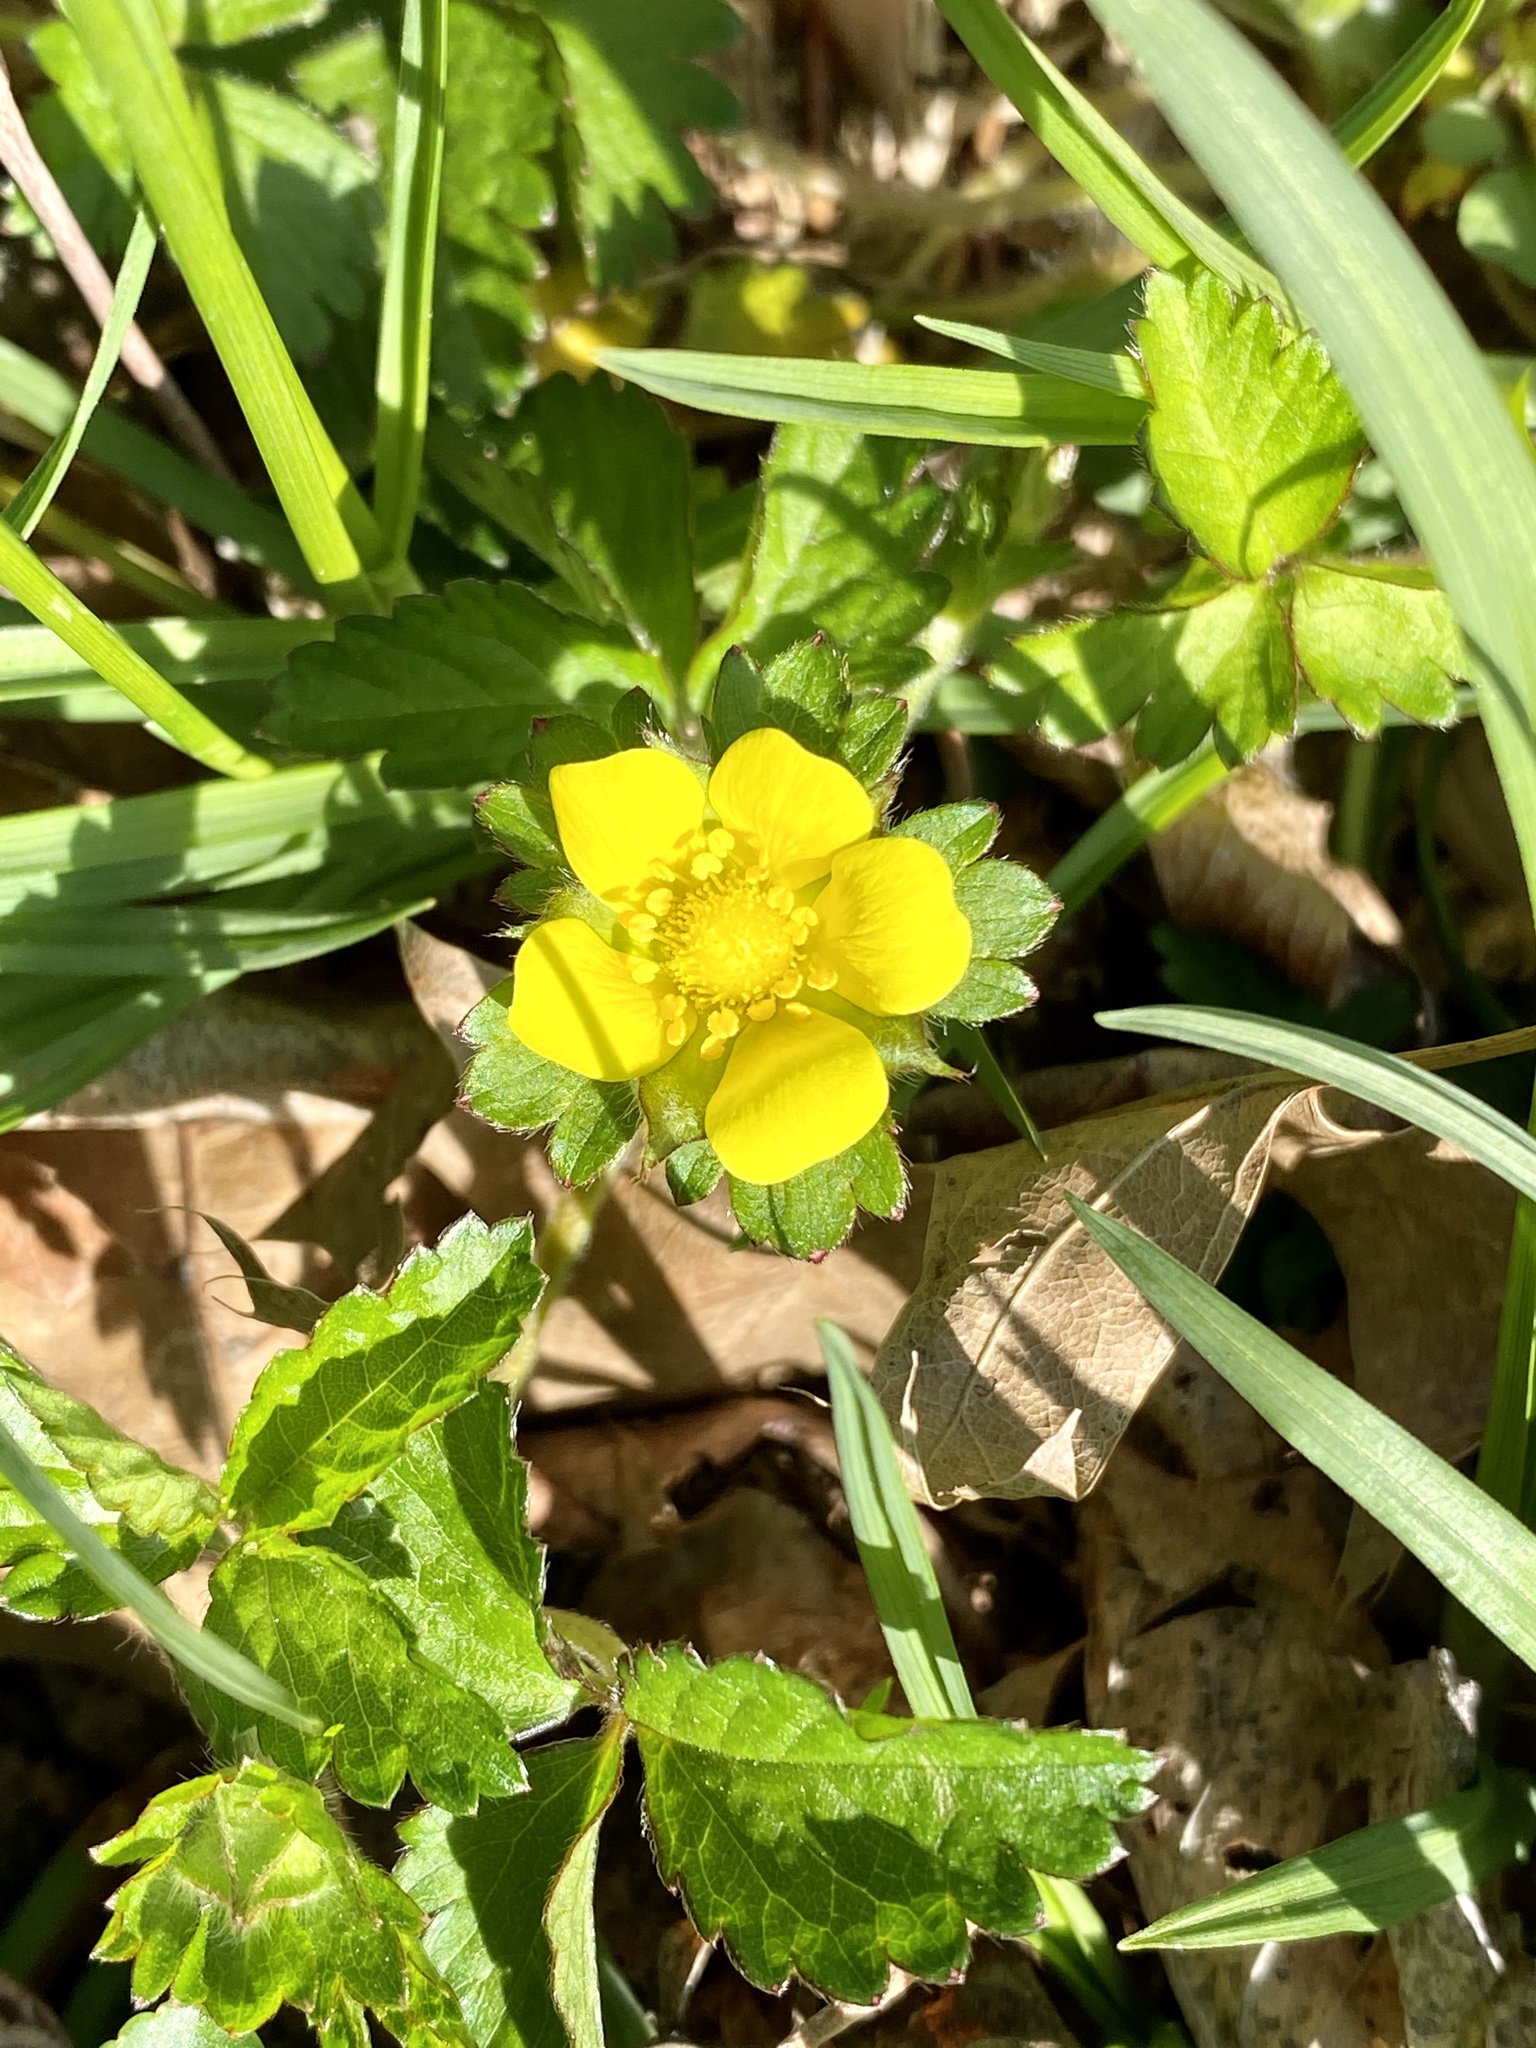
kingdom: Plantae
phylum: Tracheophyta
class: Magnoliopsida
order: Rosales
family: Rosaceae
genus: Potentilla
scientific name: Potentilla indica
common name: Yellow-flowered strawberry
